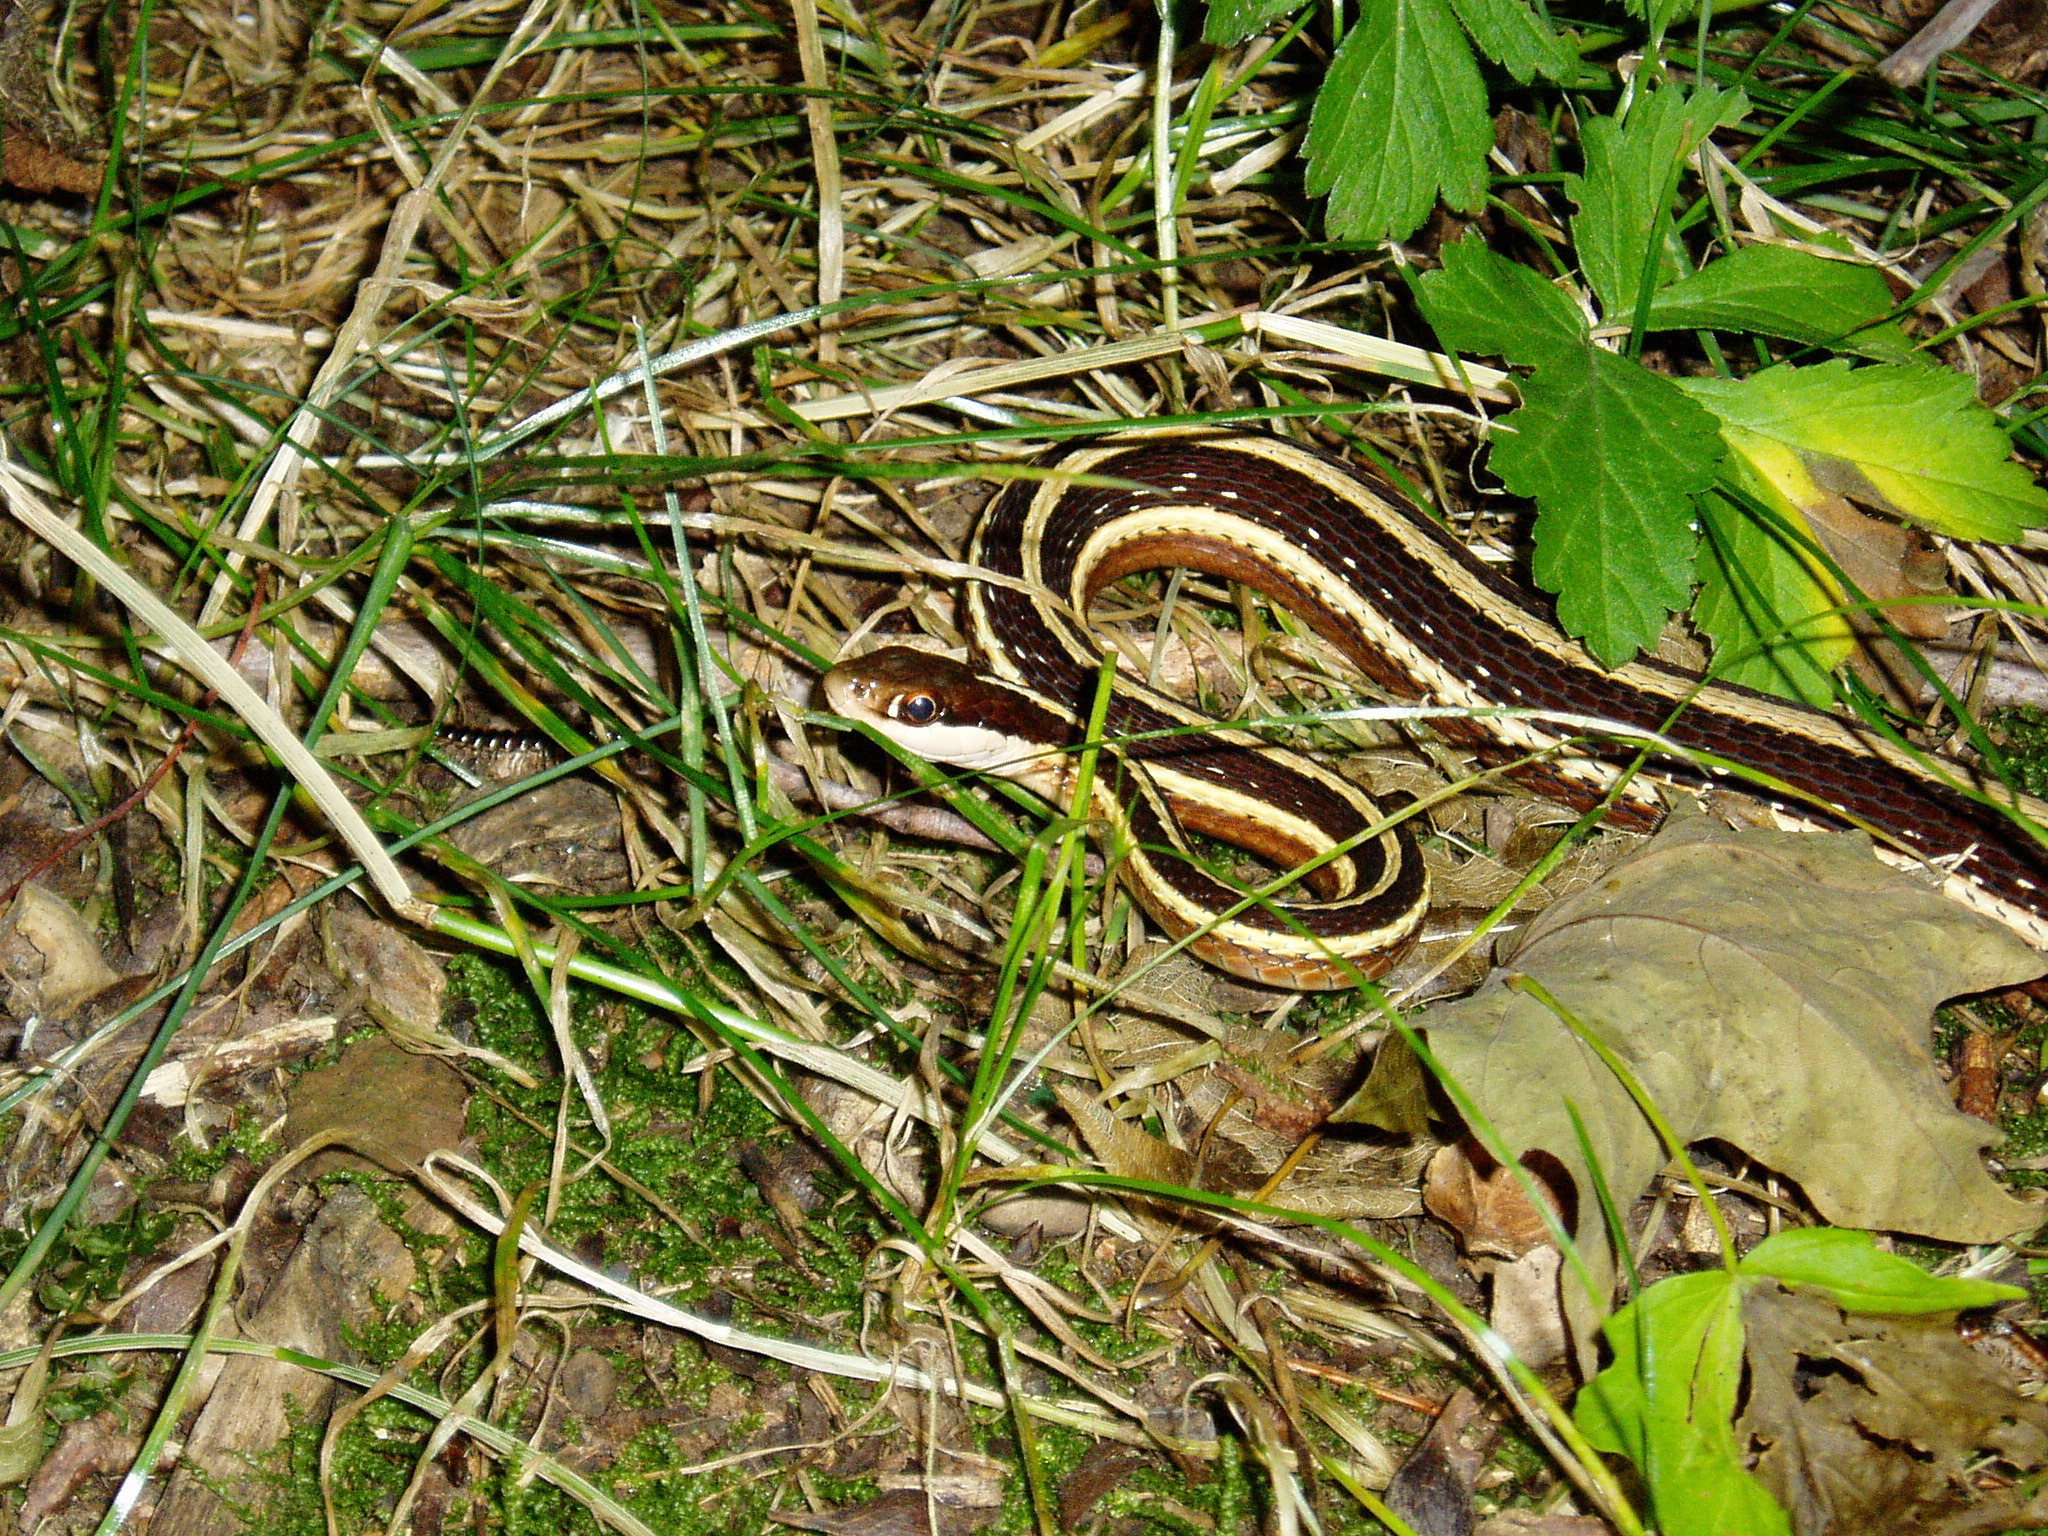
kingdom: Animalia
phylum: Chordata
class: Squamata
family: Colubridae
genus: Thamnophis
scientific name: Thamnophis saurita
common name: Eastern ribbonsnake
